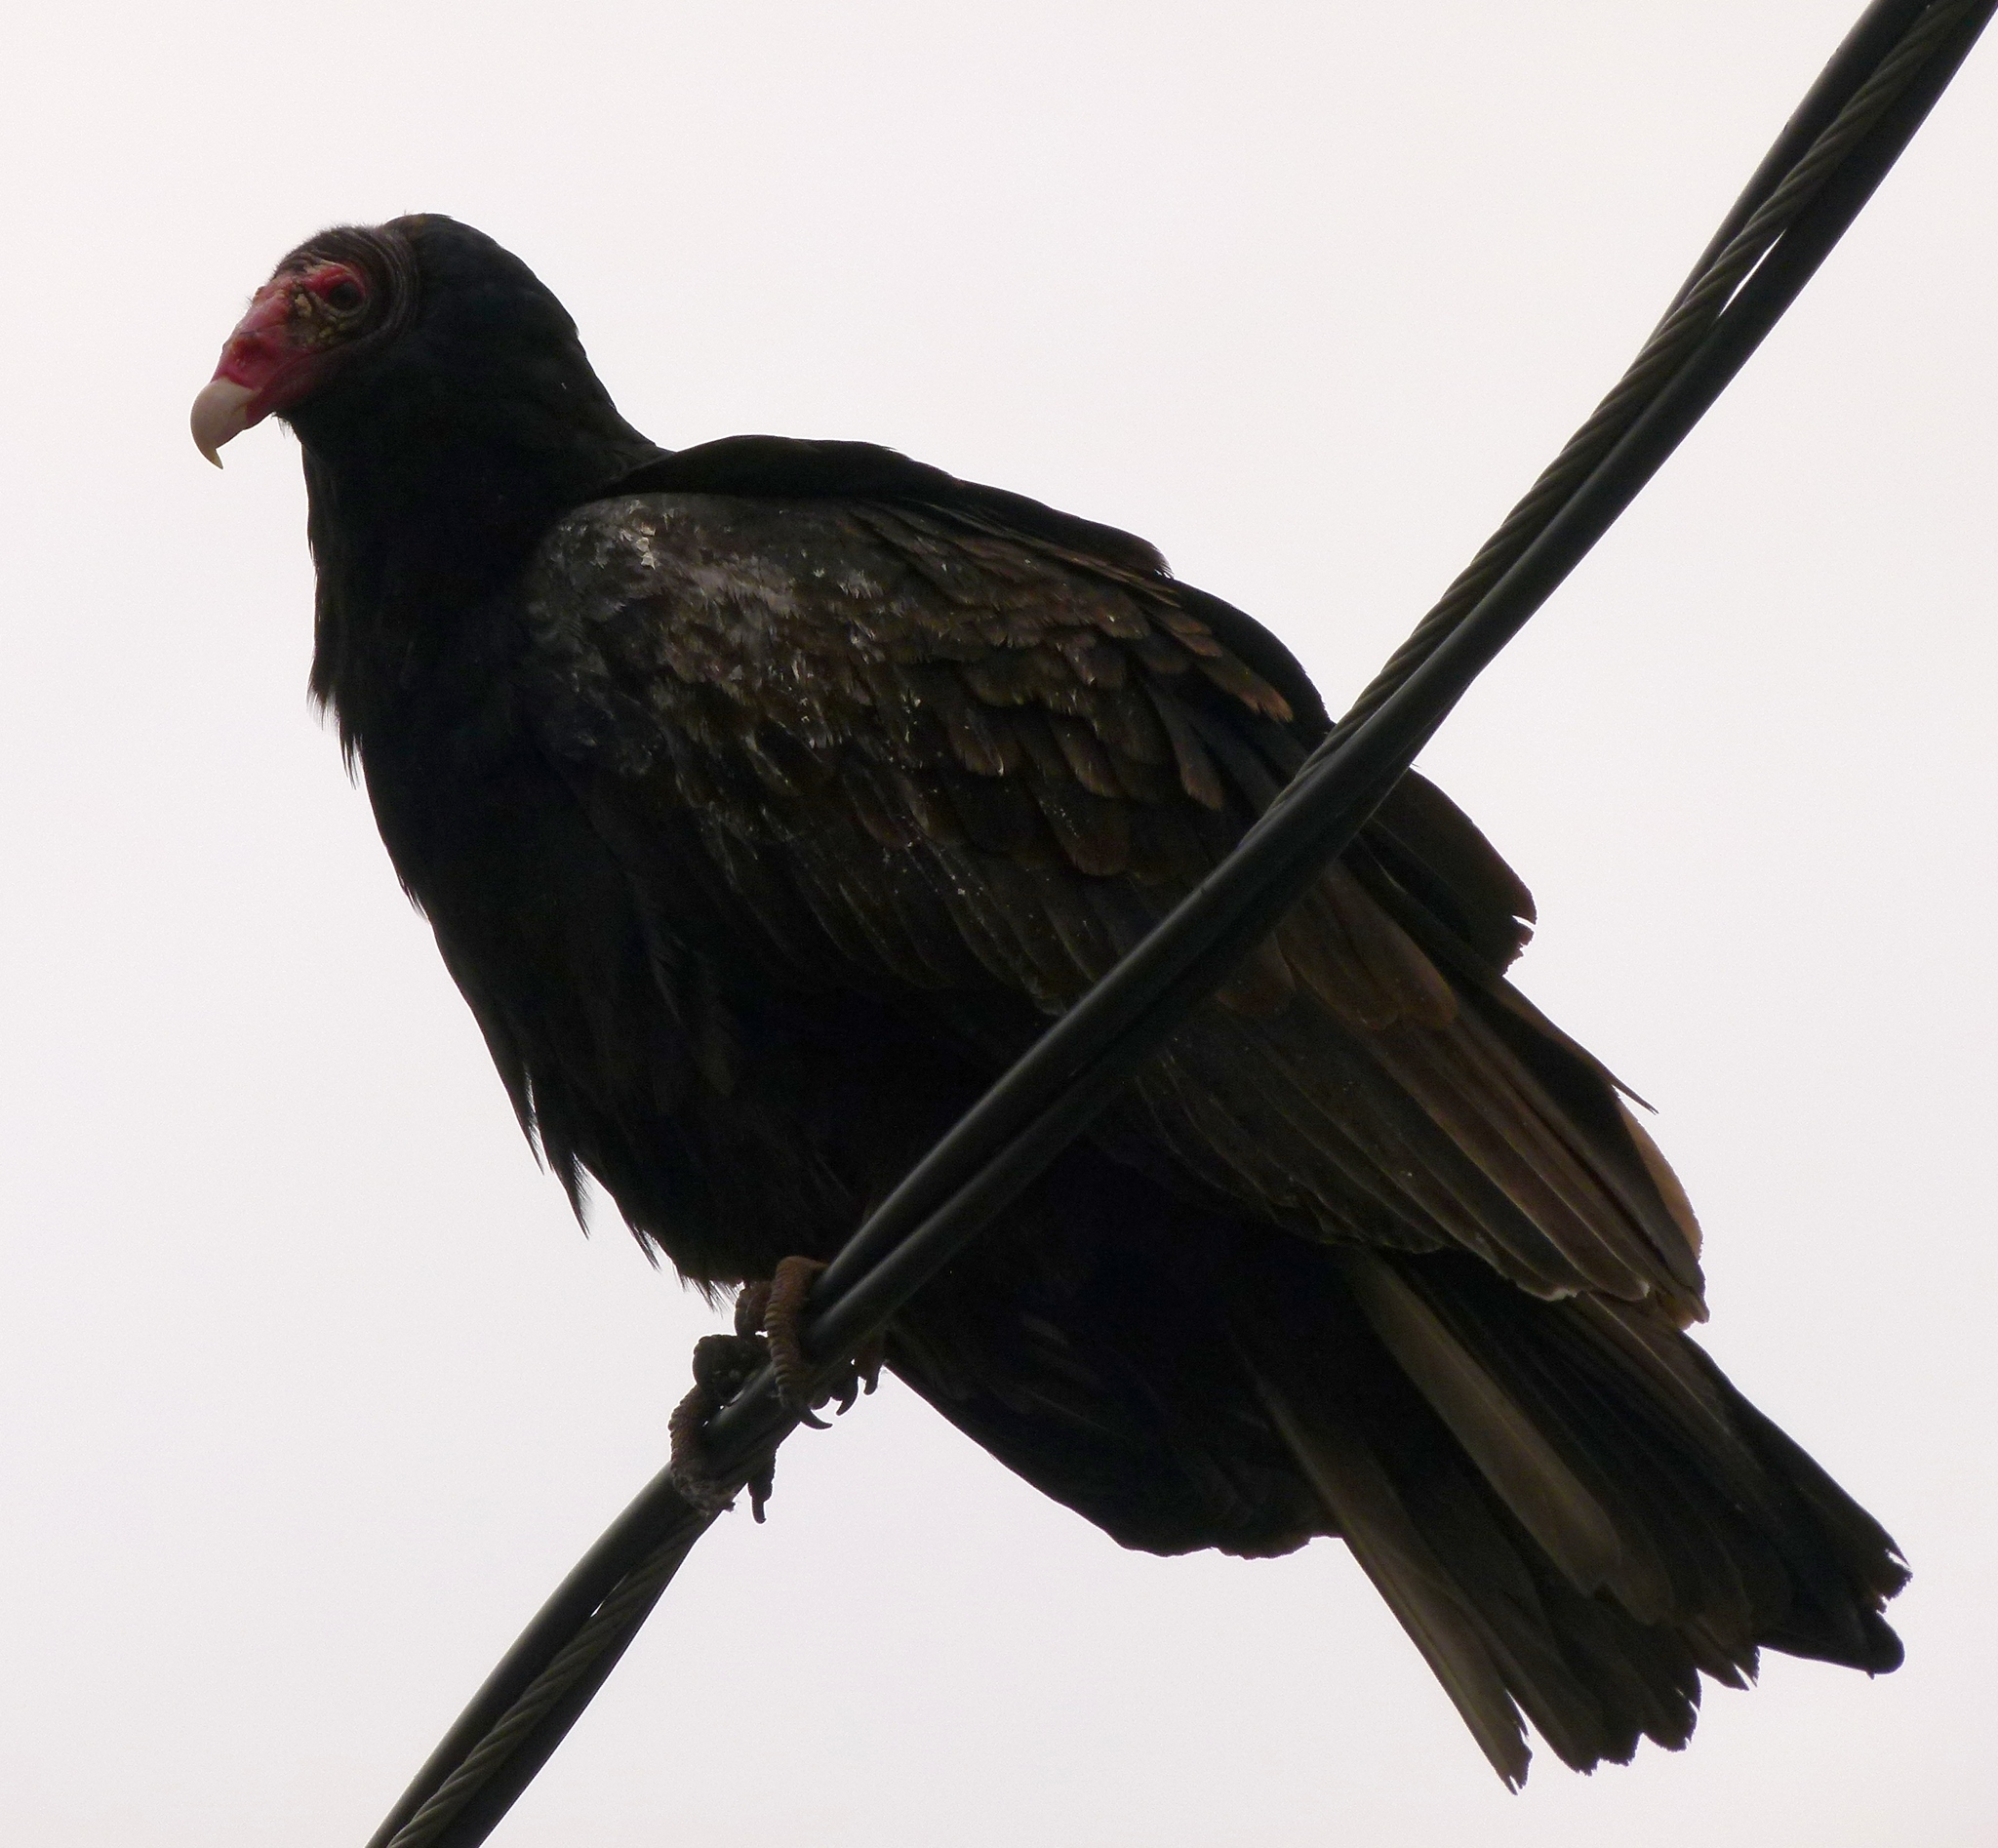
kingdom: Animalia
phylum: Chordata
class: Aves
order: Accipitriformes
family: Cathartidae
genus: Cathartes
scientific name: Cathartes aura
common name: Turkey vulture
